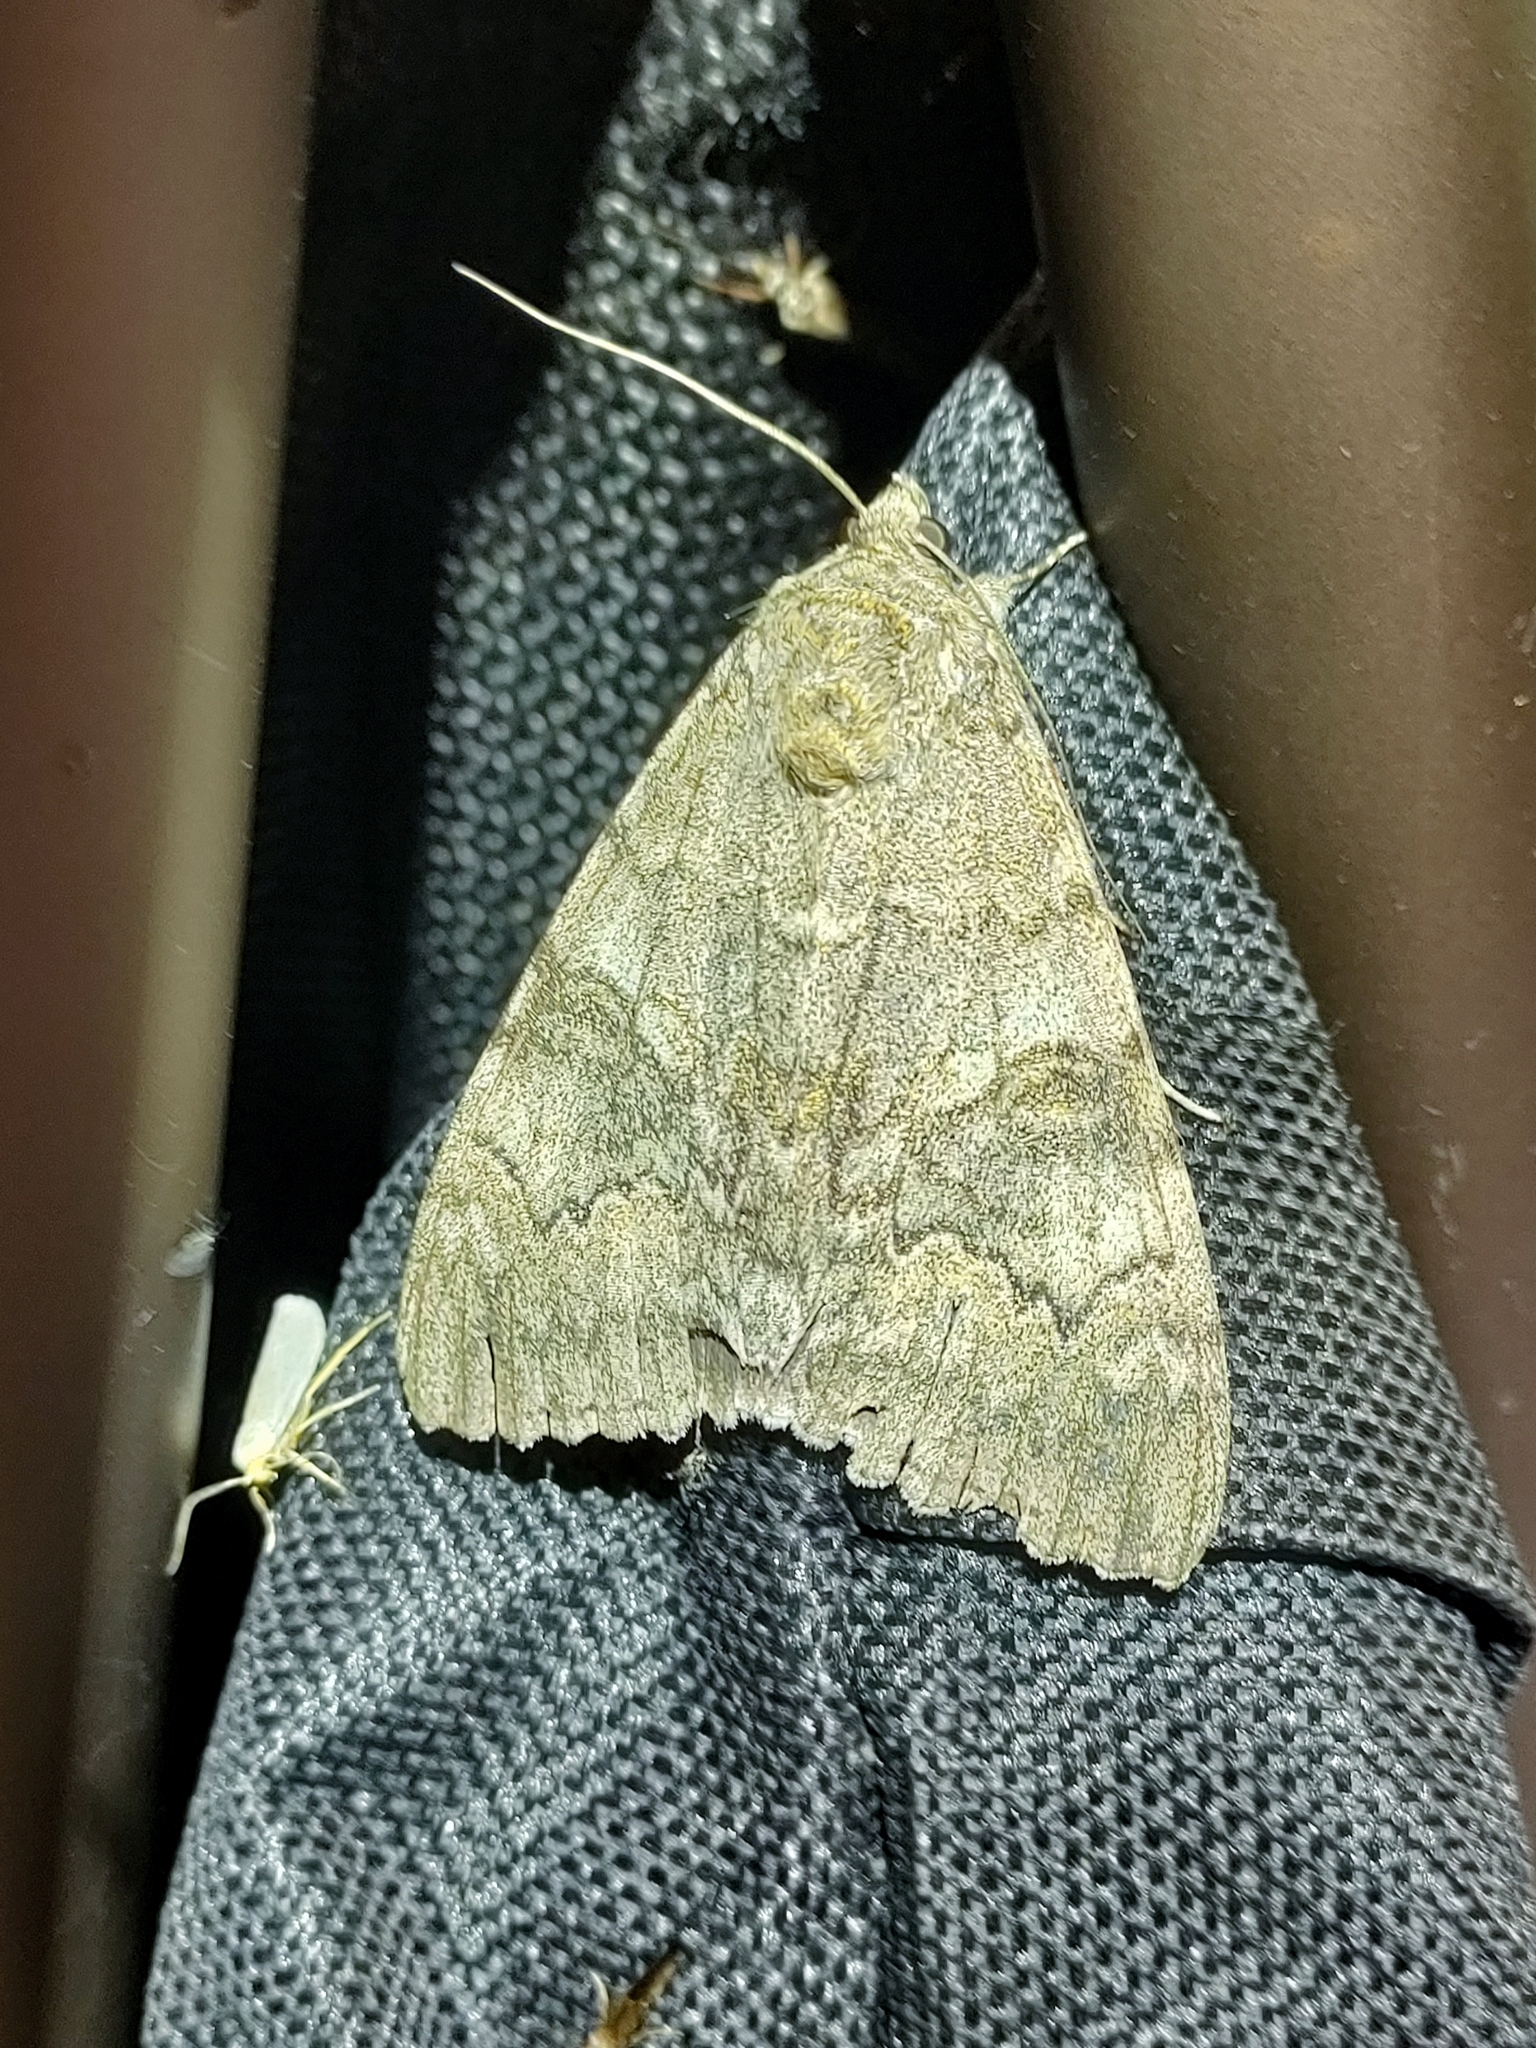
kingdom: Animalia
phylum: Arthropoda
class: Insecta
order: Lepidoptera
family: Erebidae
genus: Catocala
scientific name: Catocala nupta
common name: Red underwing
